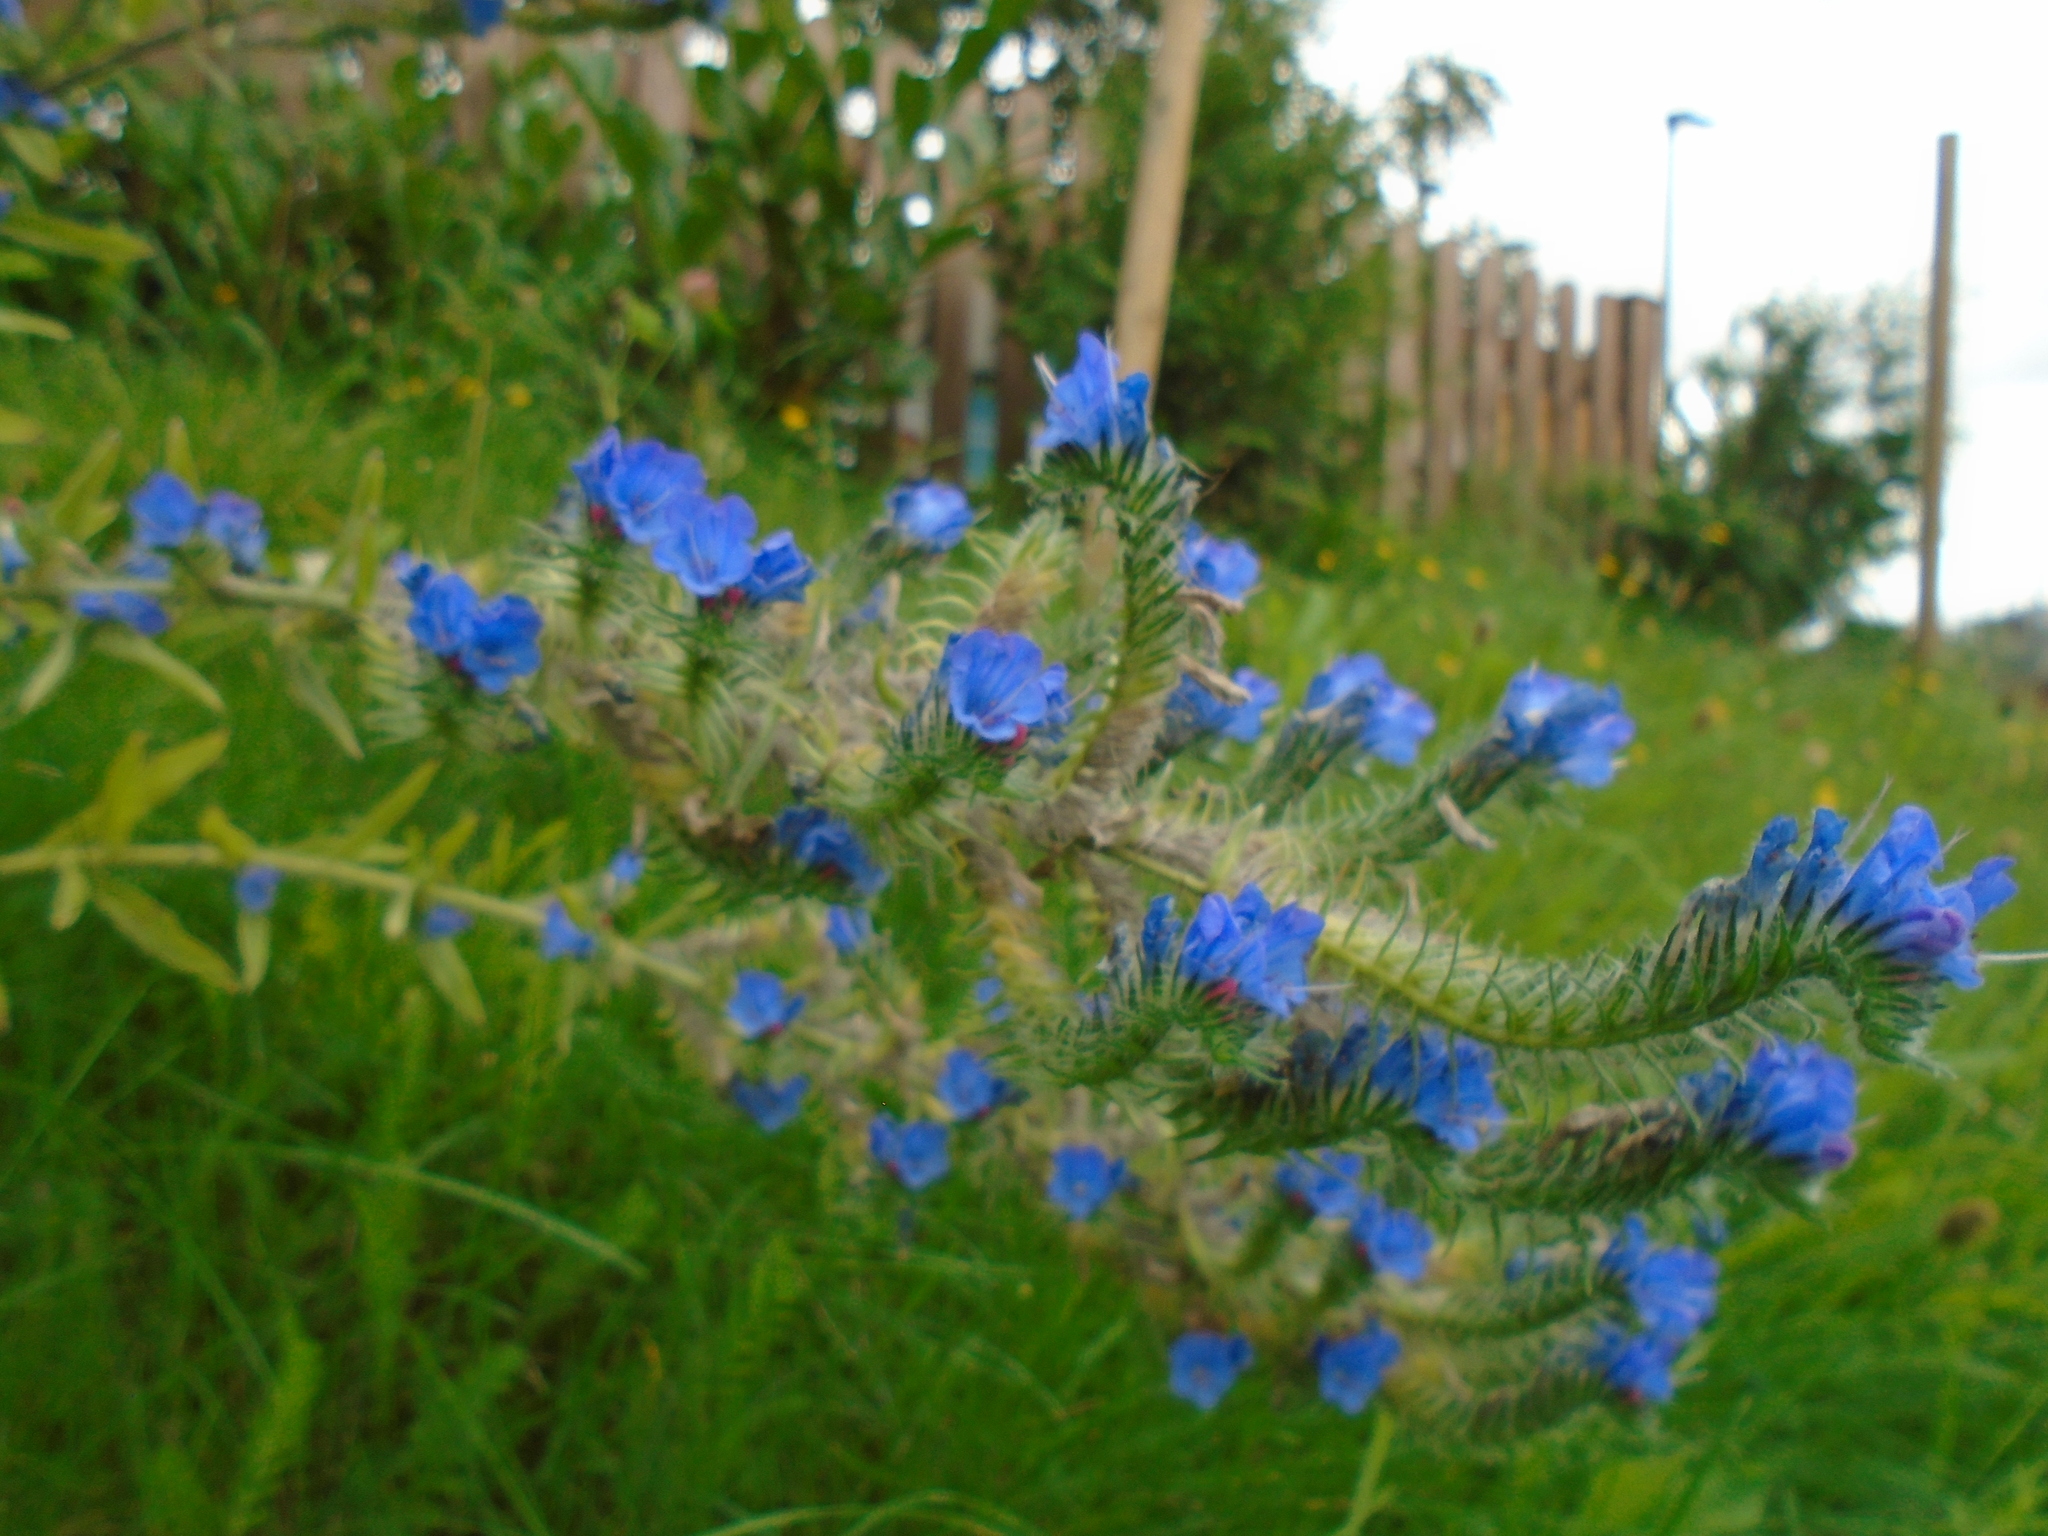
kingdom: Plantae
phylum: Tracheophyta
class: Magnoliopsida
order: Boraginales
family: Boraginaceae
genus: Echium
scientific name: Echium vulgare
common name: Common viper's bugloss
